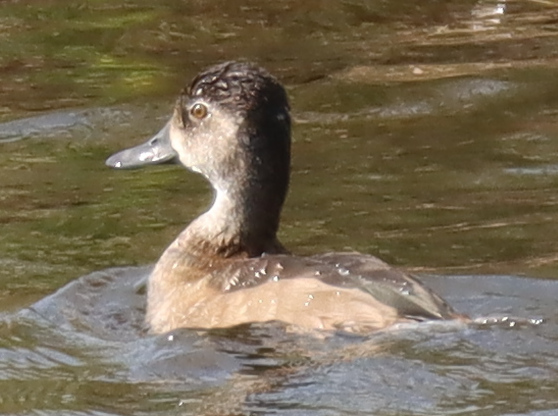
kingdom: Animalia
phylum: Chordata
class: Aves
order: Anseriformes
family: Anatidae
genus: Aythya
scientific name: Aythya collaris
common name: Ring-necked duck
